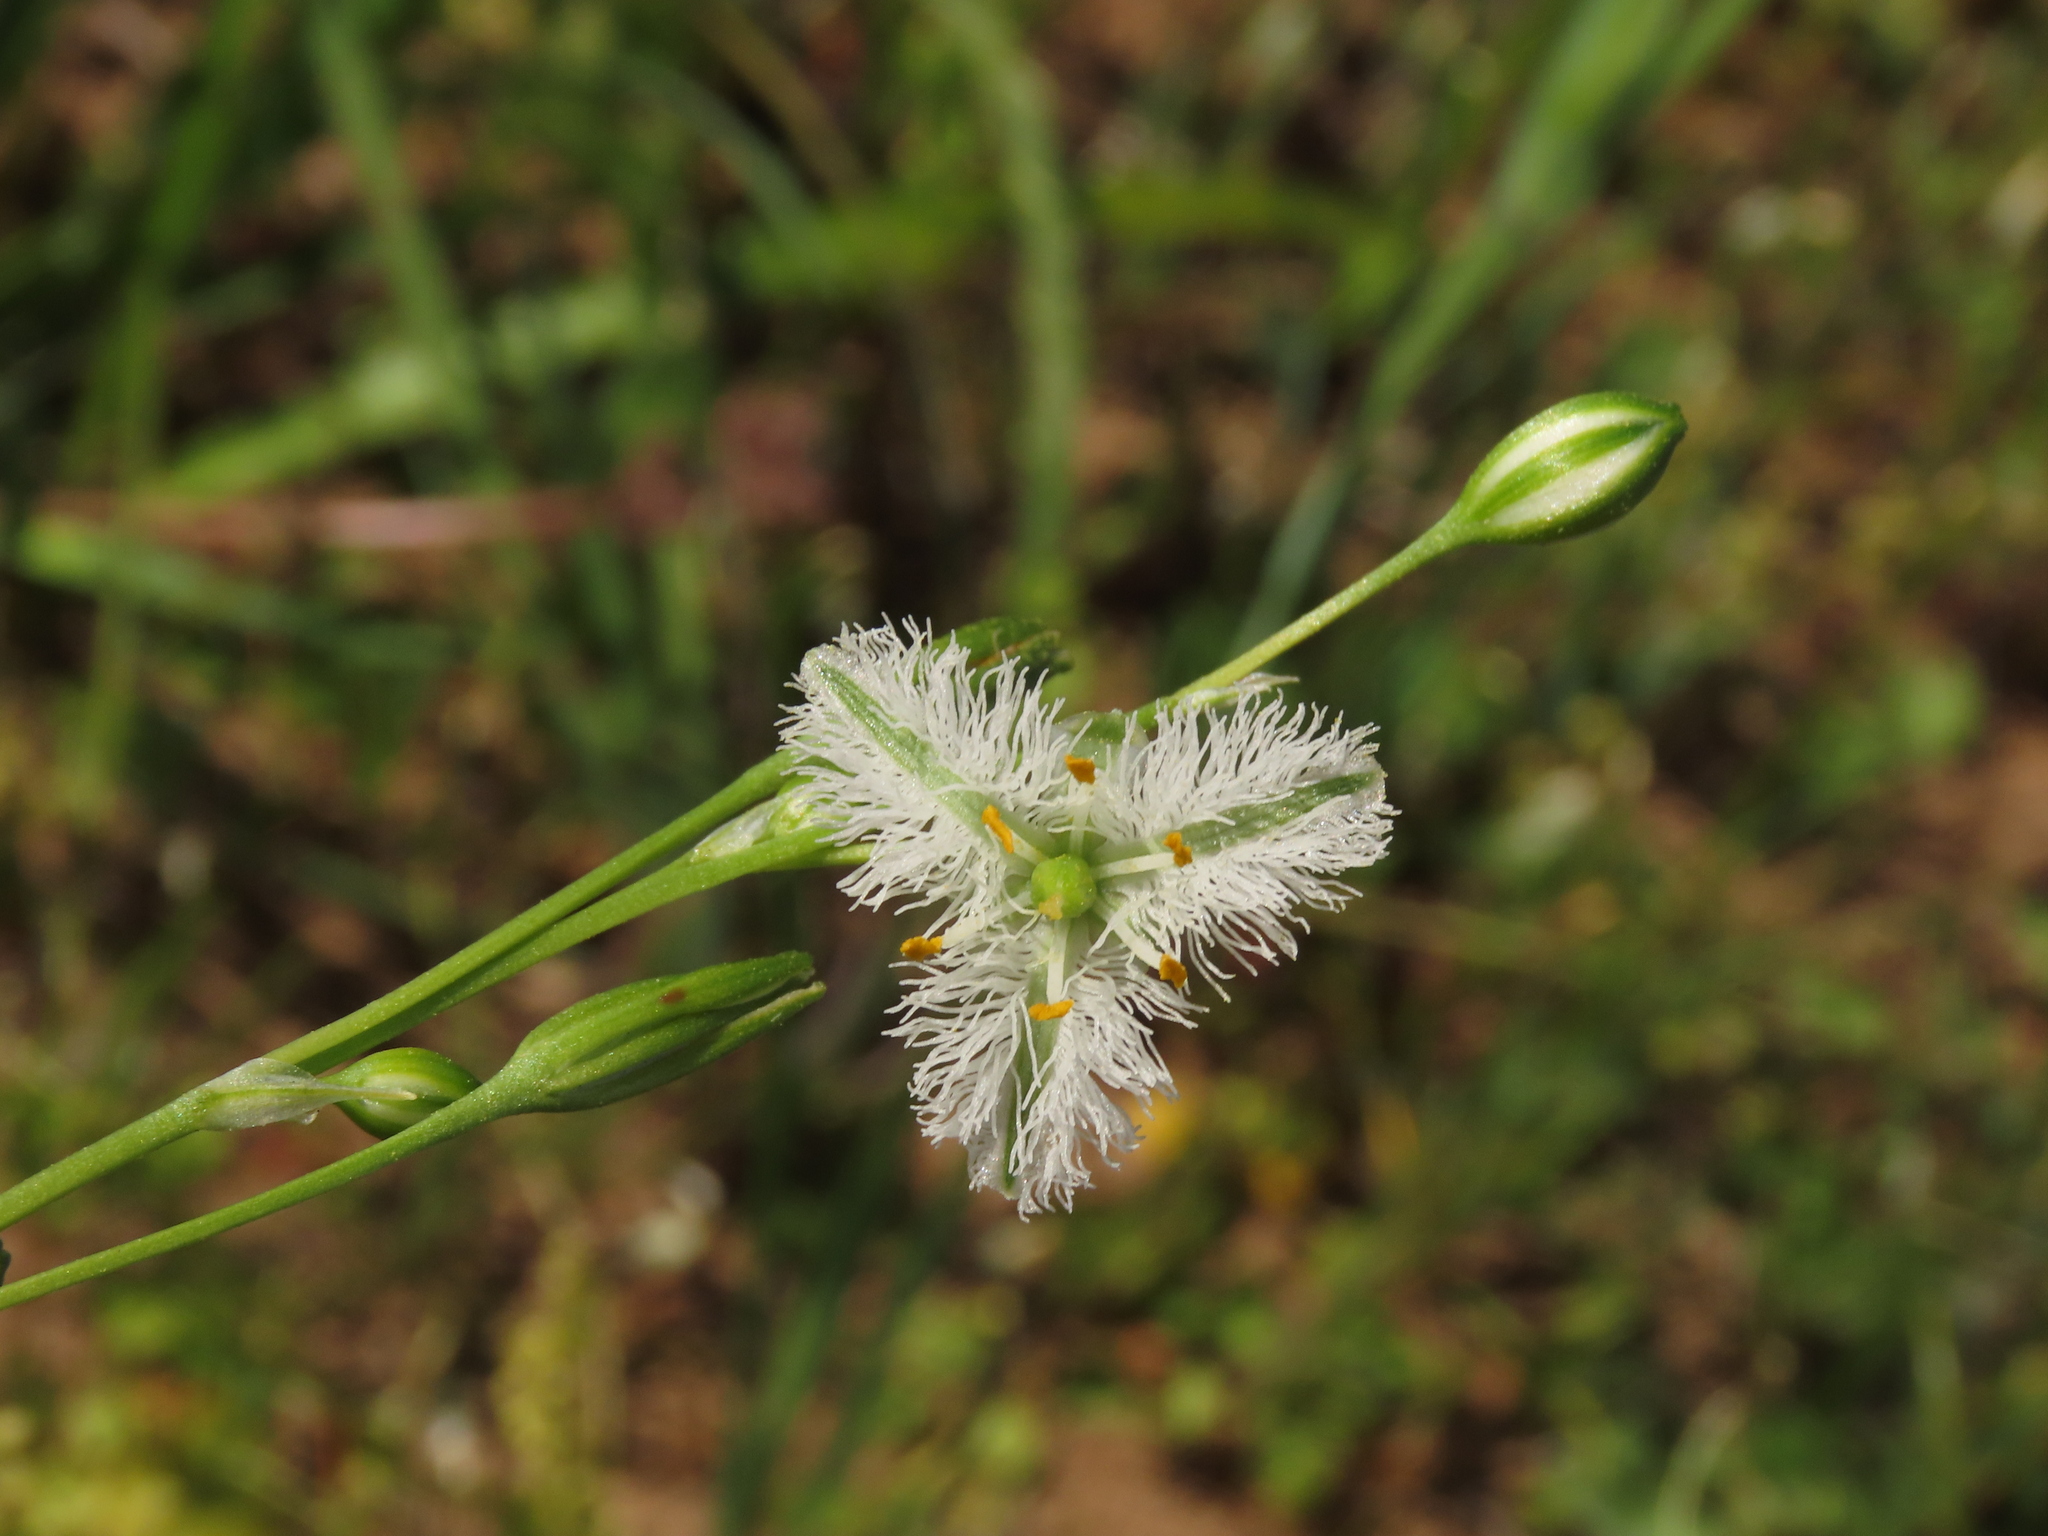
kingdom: Plantae
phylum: Tracheophyta
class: Liliopsida
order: Asparagales
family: Asparagaceae
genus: Trichopetalum
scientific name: Trichopetalum plumosum
